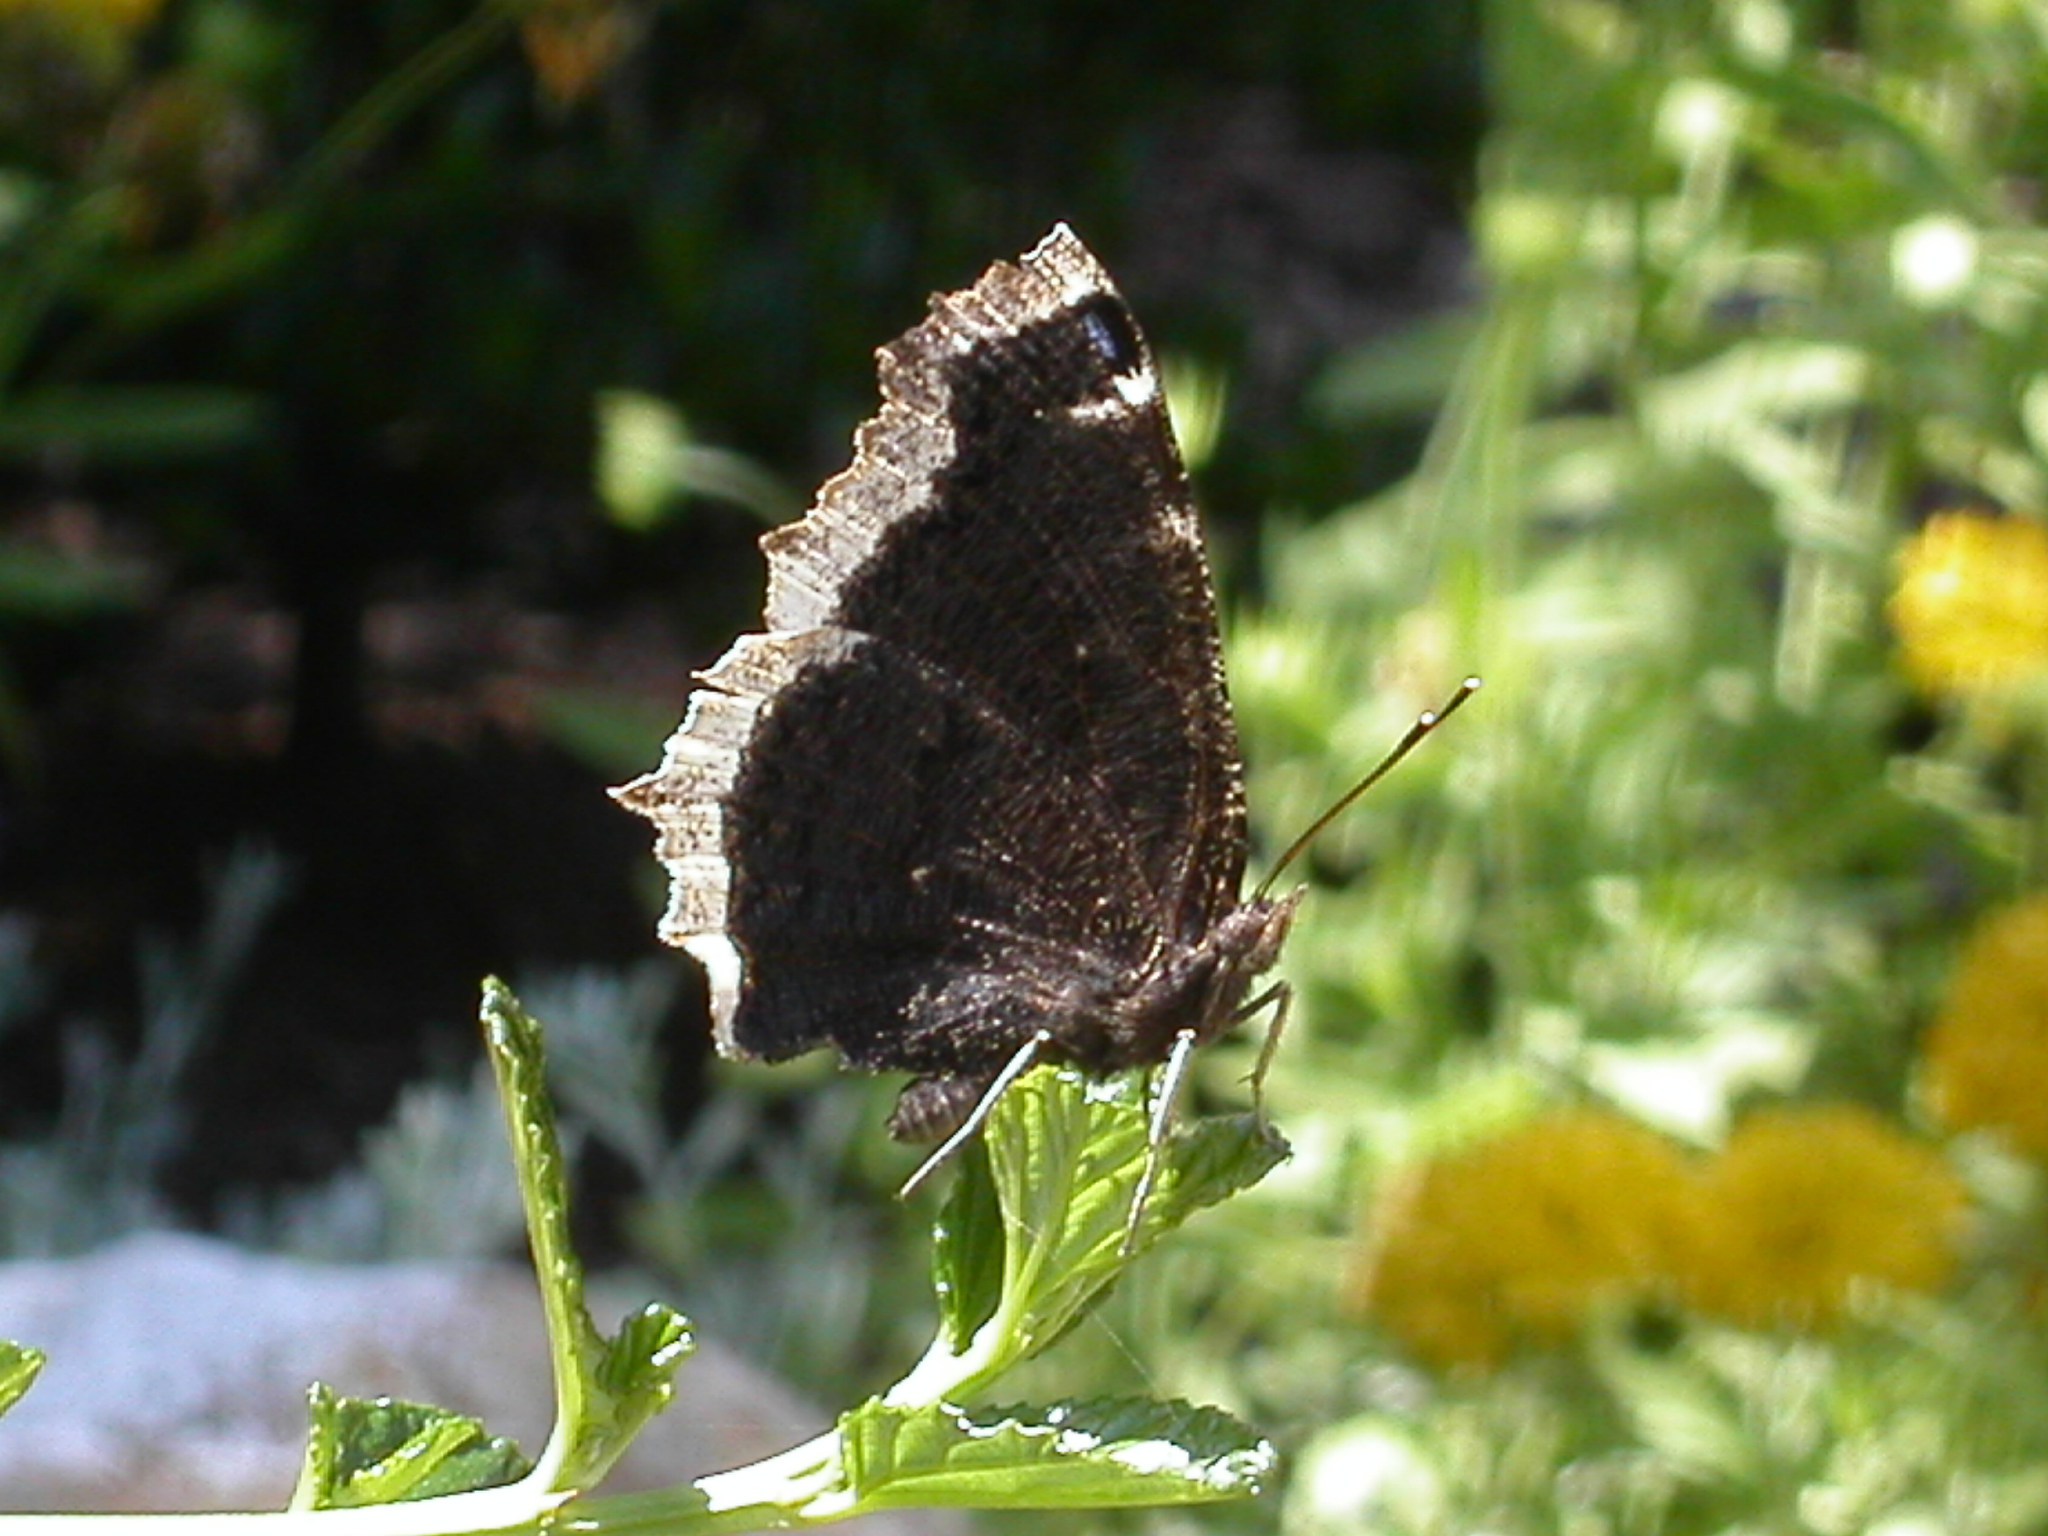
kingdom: Animalia
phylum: Arthropoda
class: Insecta
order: Lepidoptera
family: Nymphalidae
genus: Nymphalis
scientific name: Nymphalis antiopa
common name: Camberwell beauty
